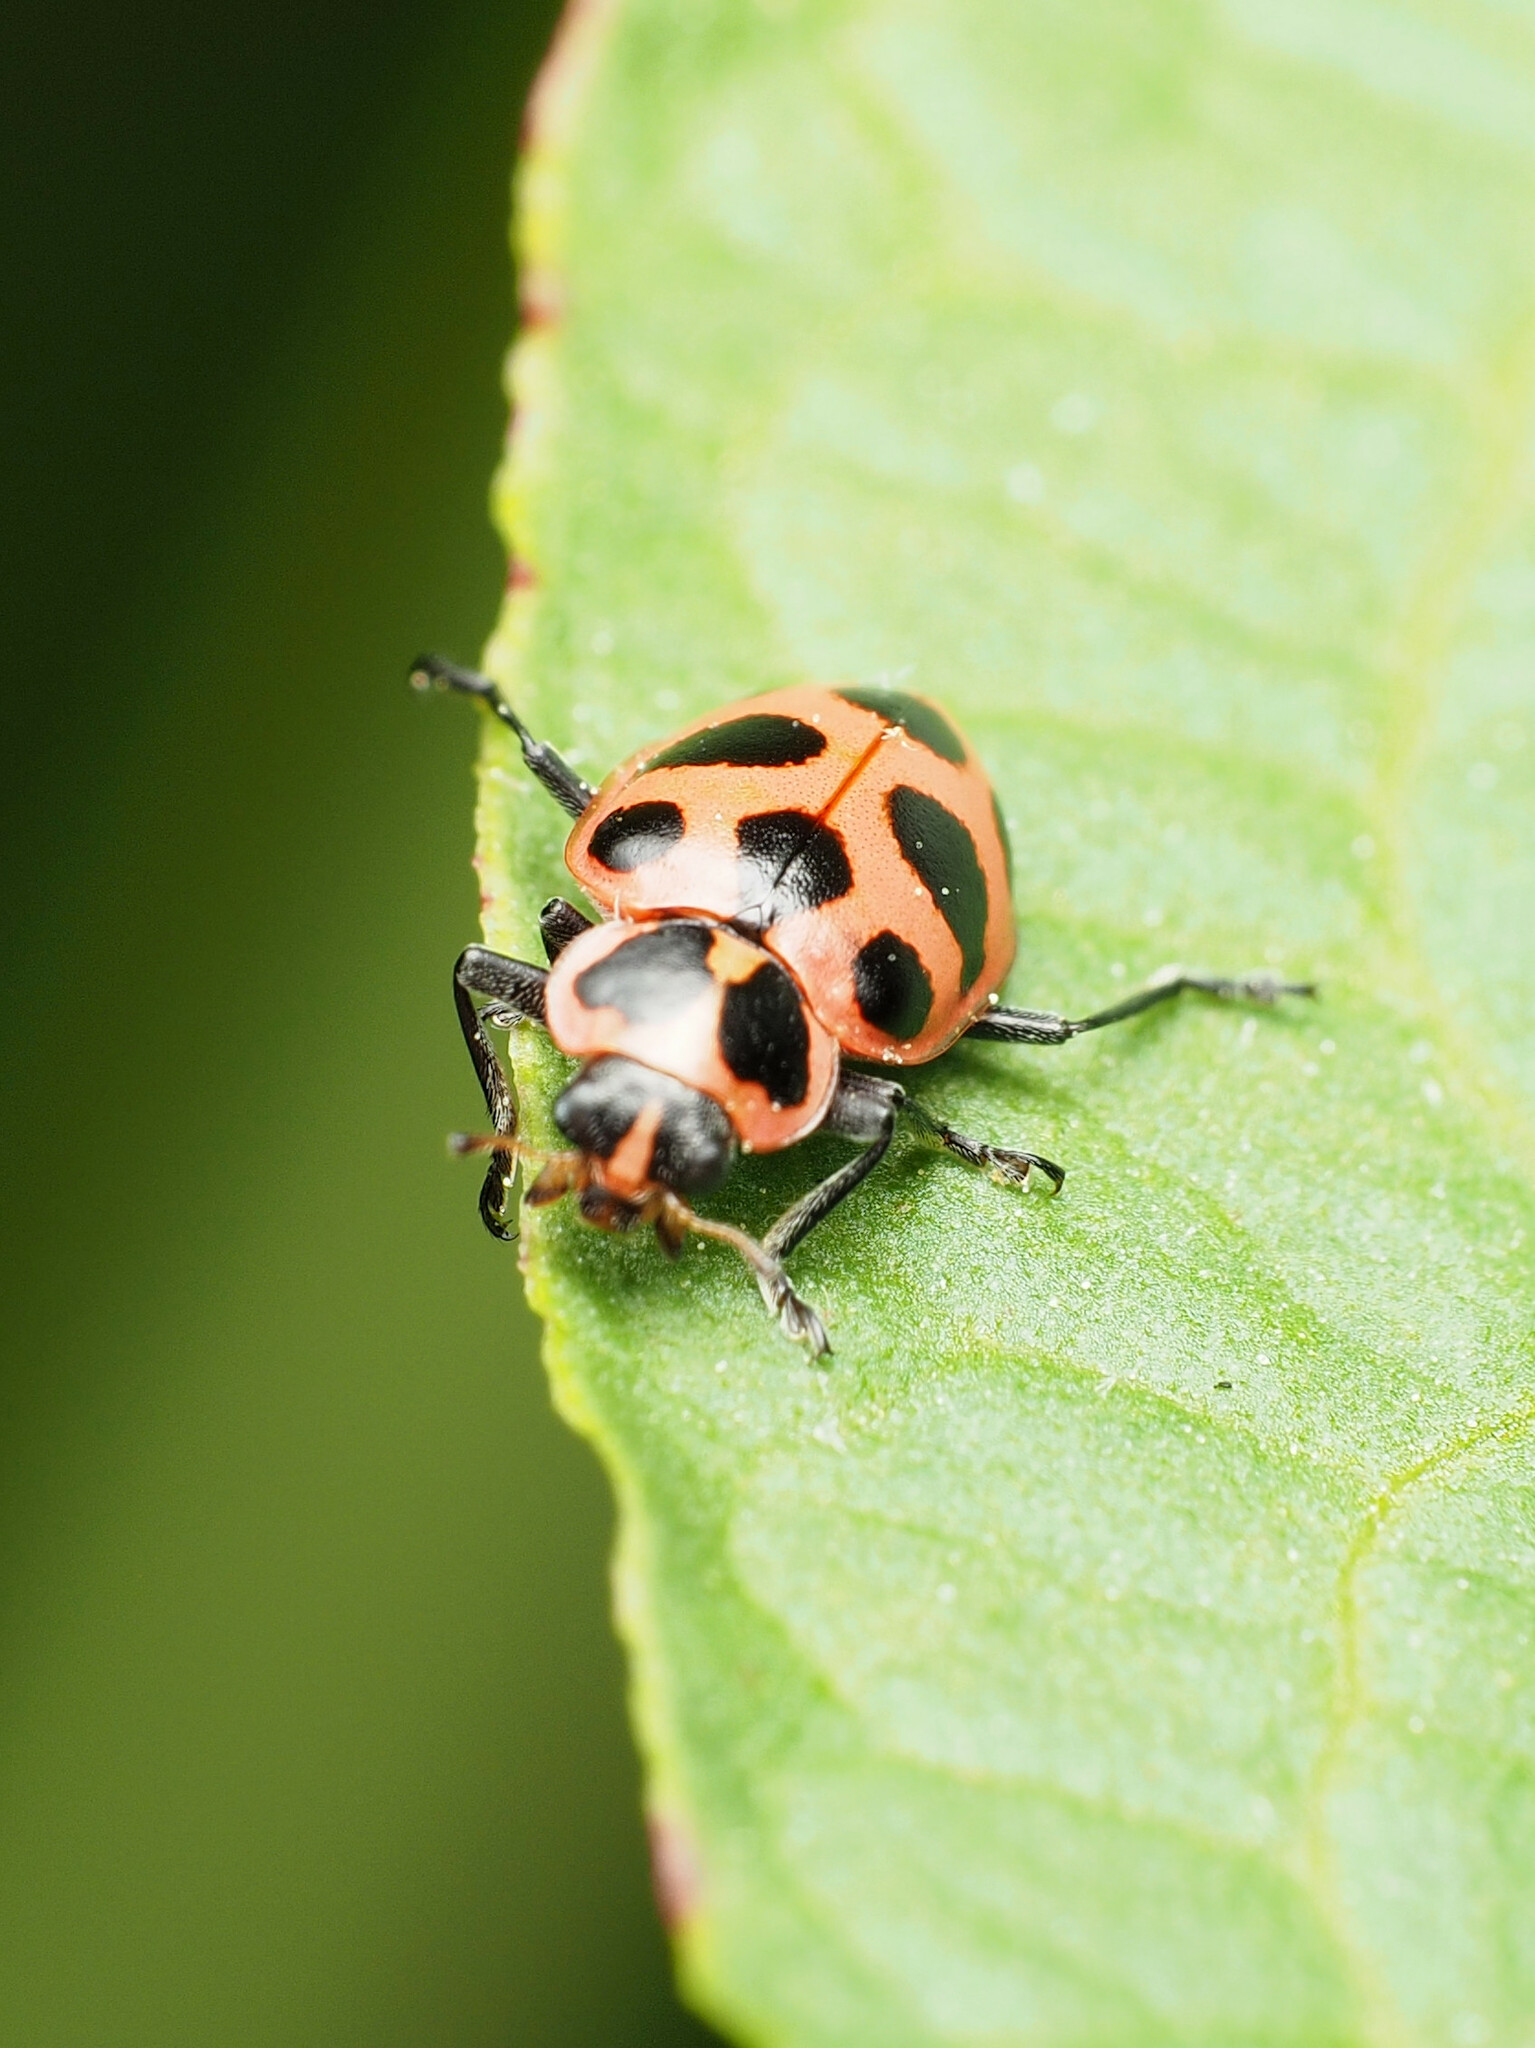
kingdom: Animalia
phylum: Arthropoda
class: Insecta
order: Coleoptera
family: Coccinellidae
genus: Coleomegilla
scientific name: Coleomegilla maculata
